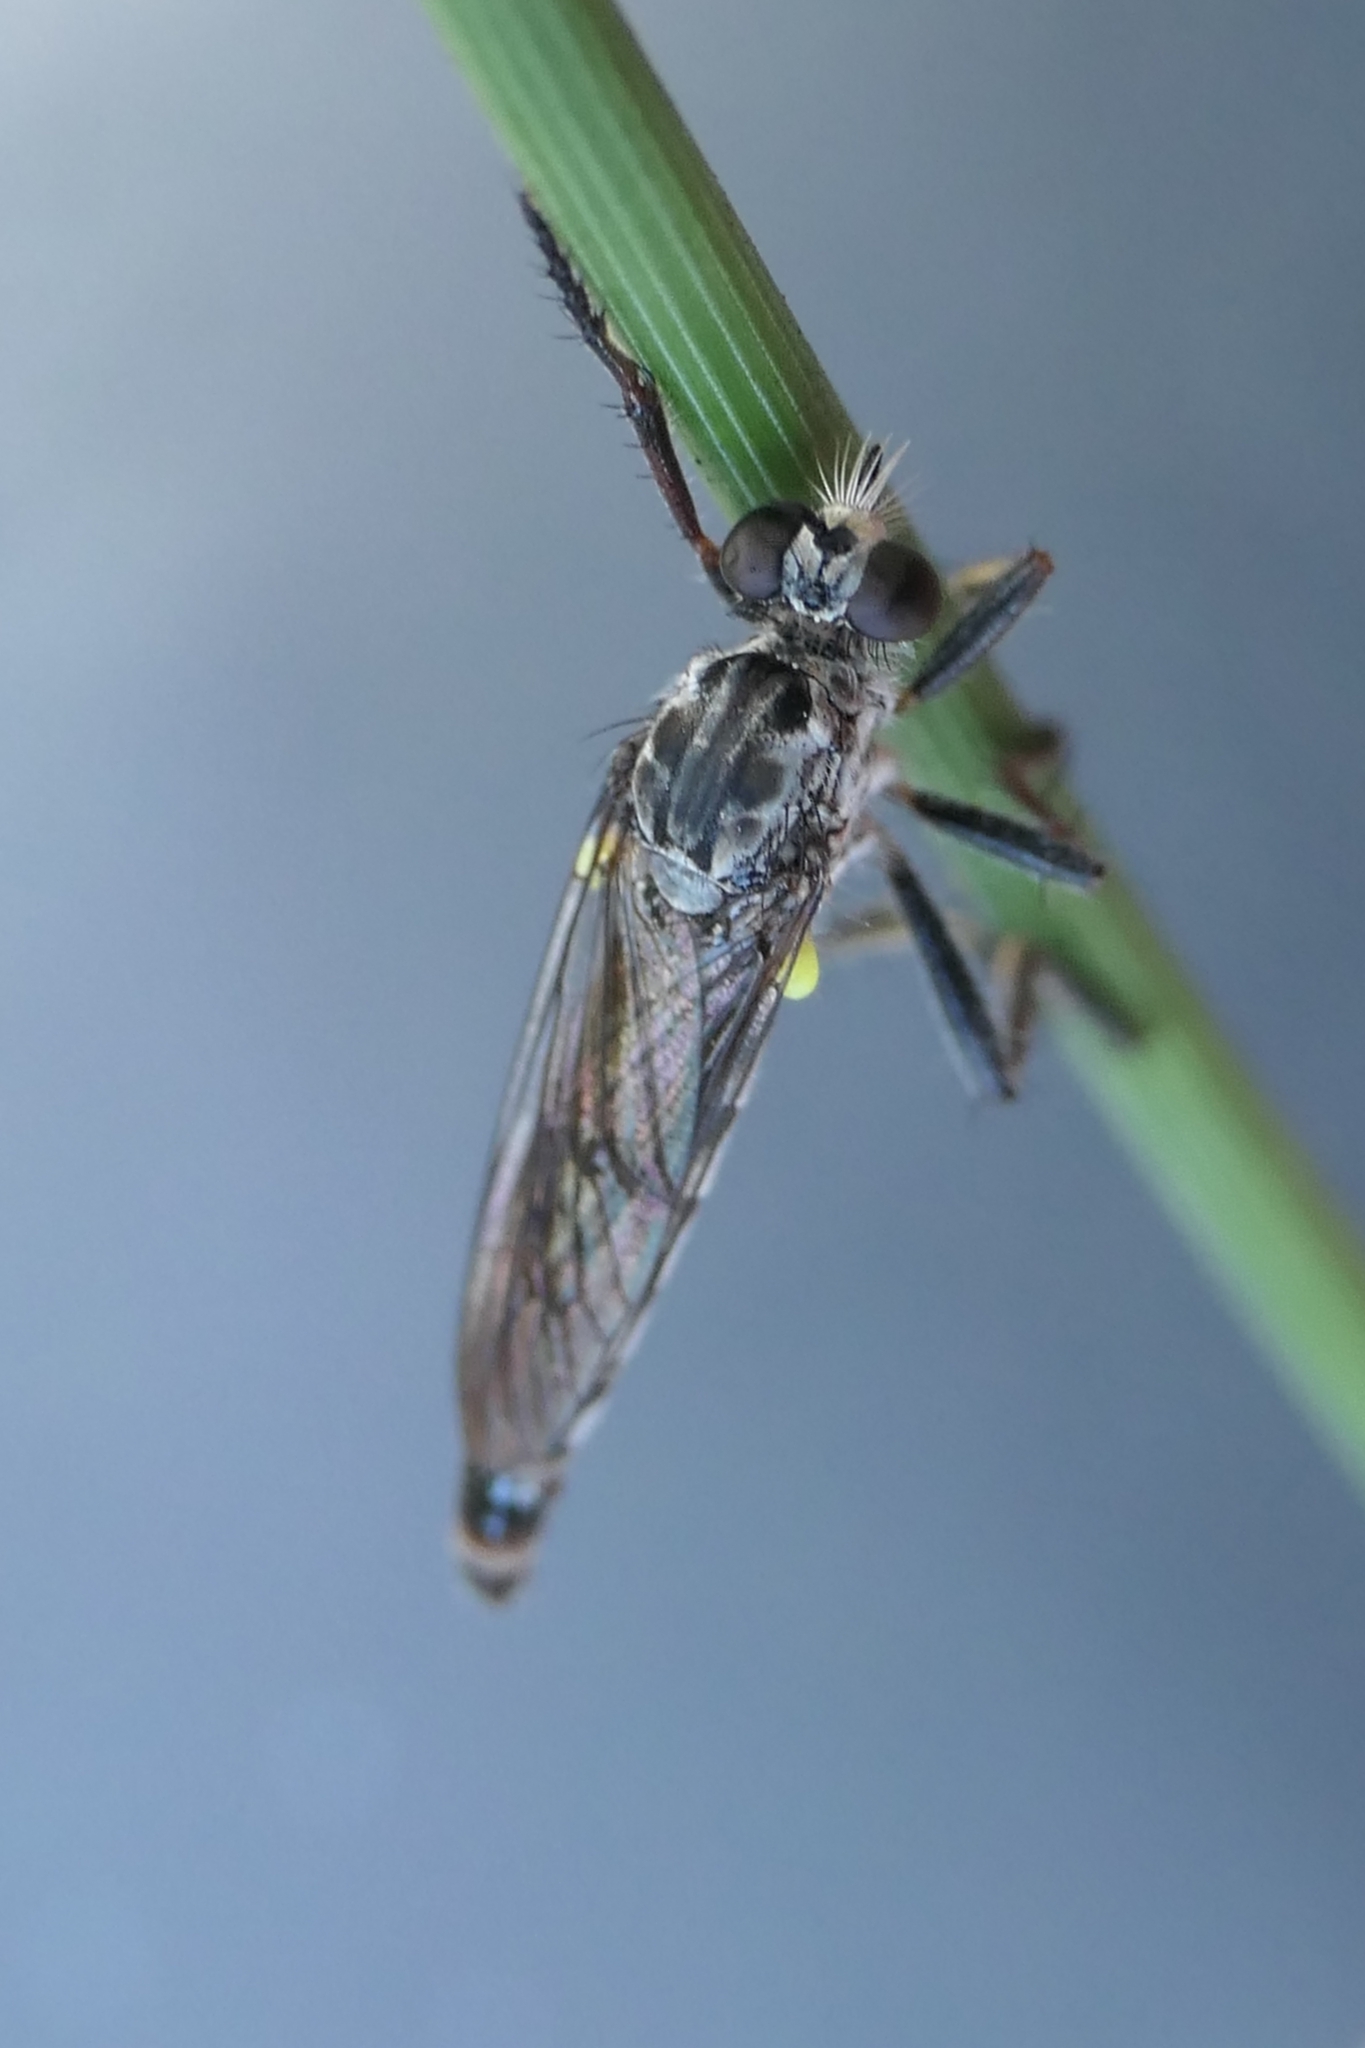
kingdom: Animalia
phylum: Arthropoda
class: Insecta
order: Diptera
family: Asilidae
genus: Saropogon
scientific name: Saropogon discus
